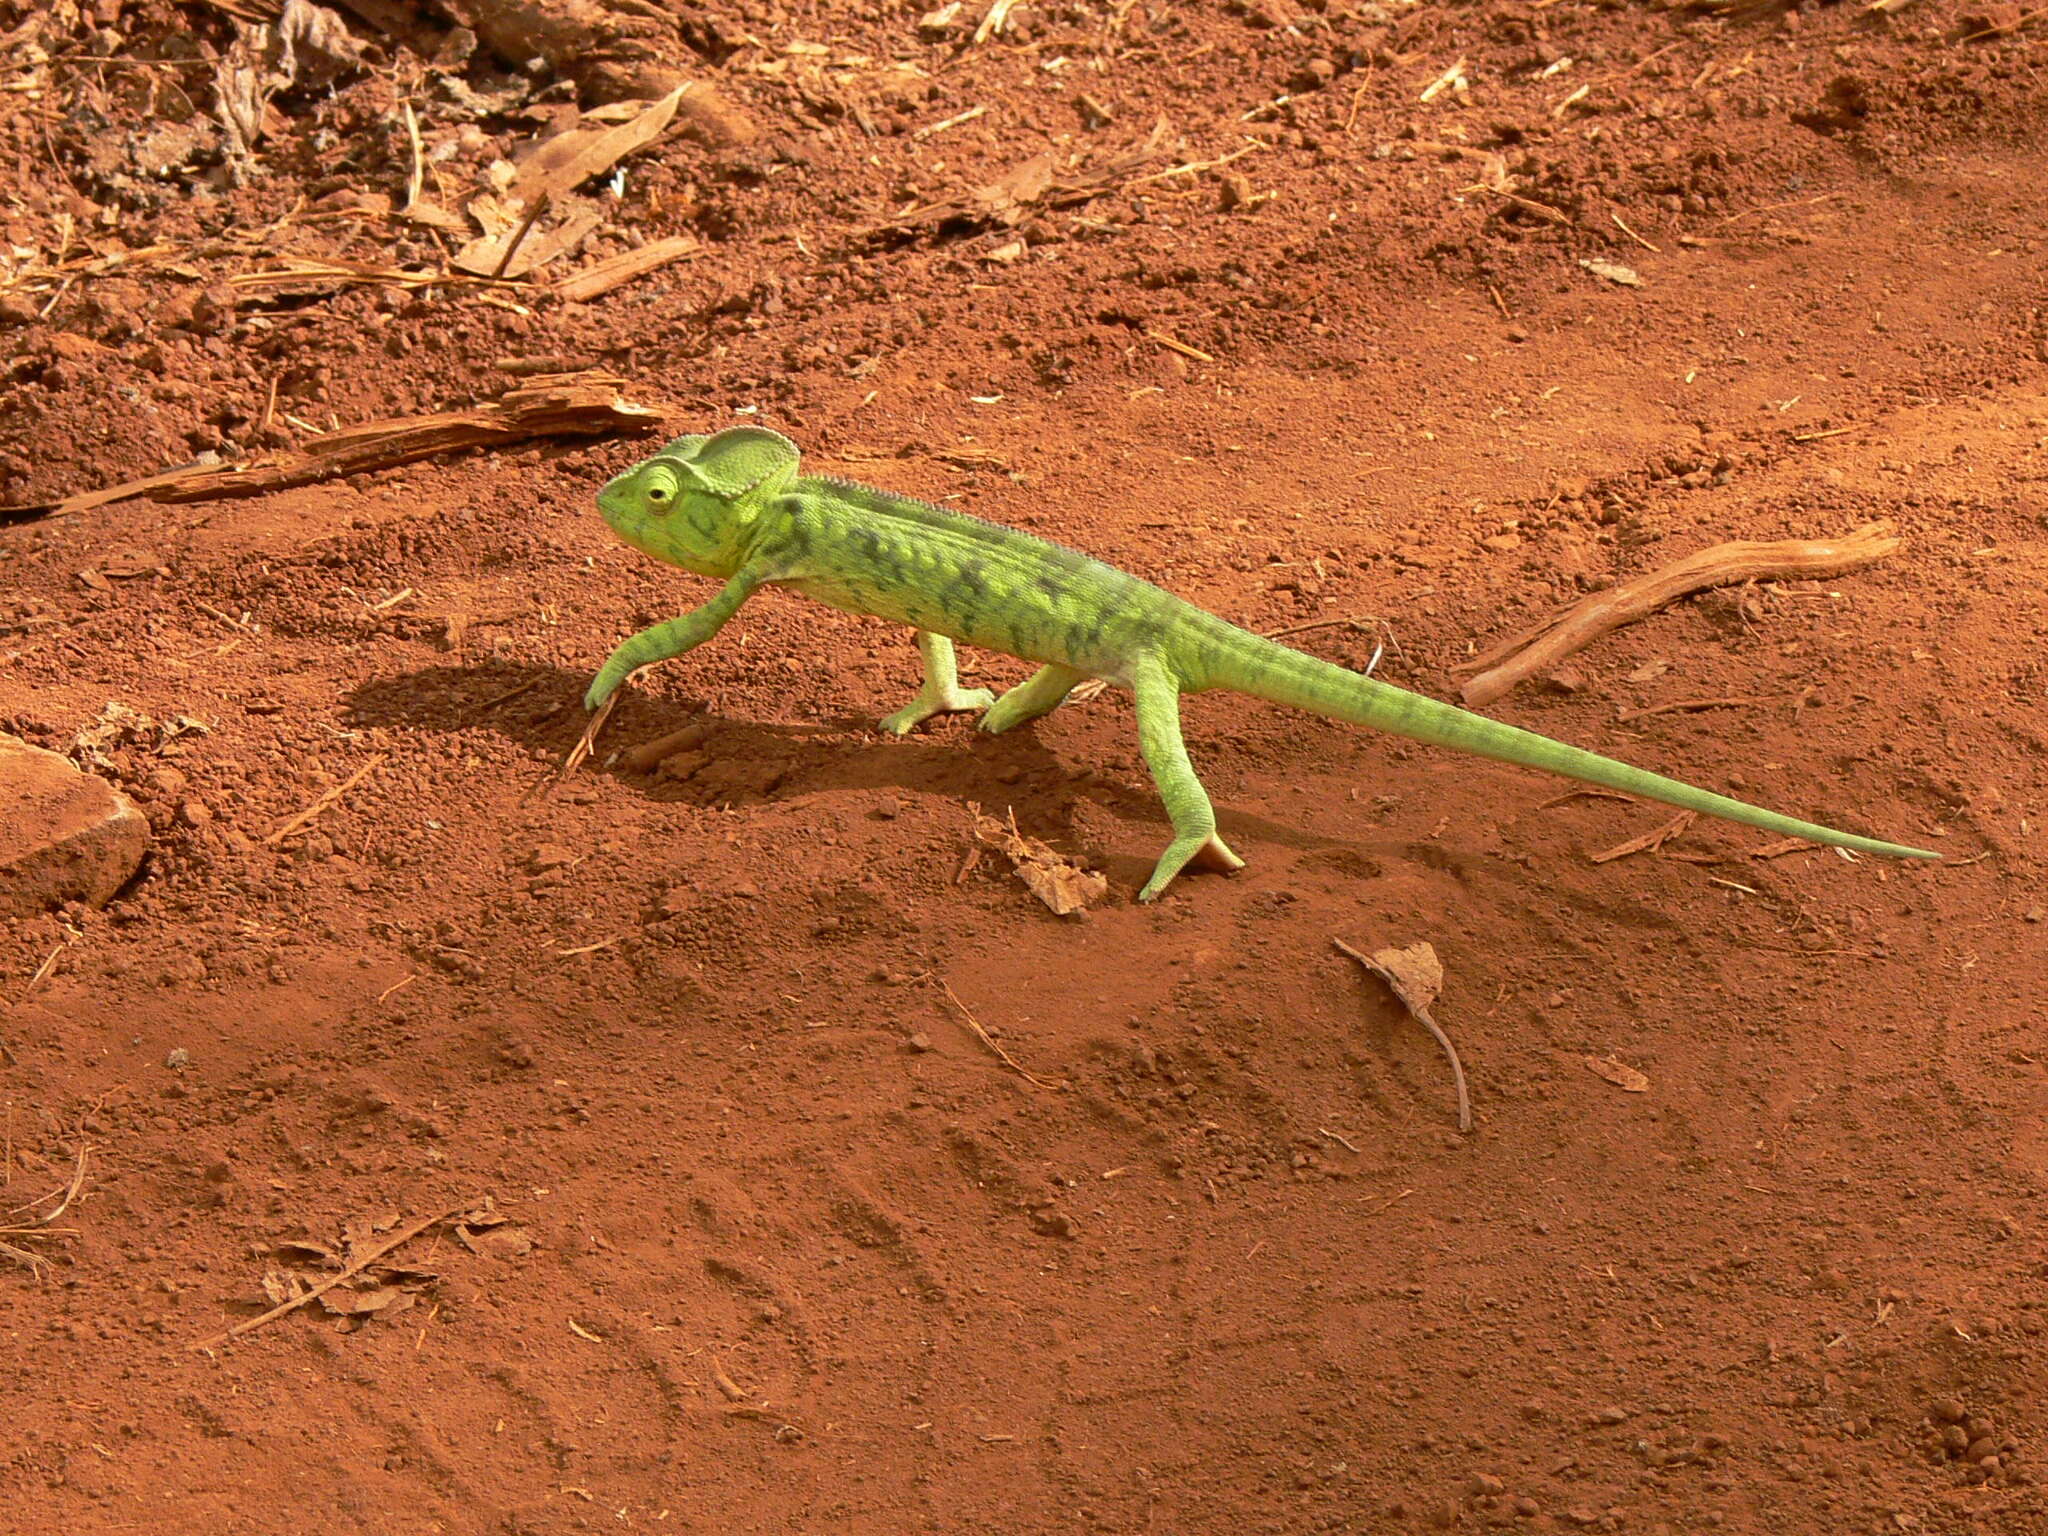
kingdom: Animalia
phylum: Chordata
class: Squamata
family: Chamaeleonidae
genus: Furcifer
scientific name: Furcifer oustaleti
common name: Oustalet's chameleon
